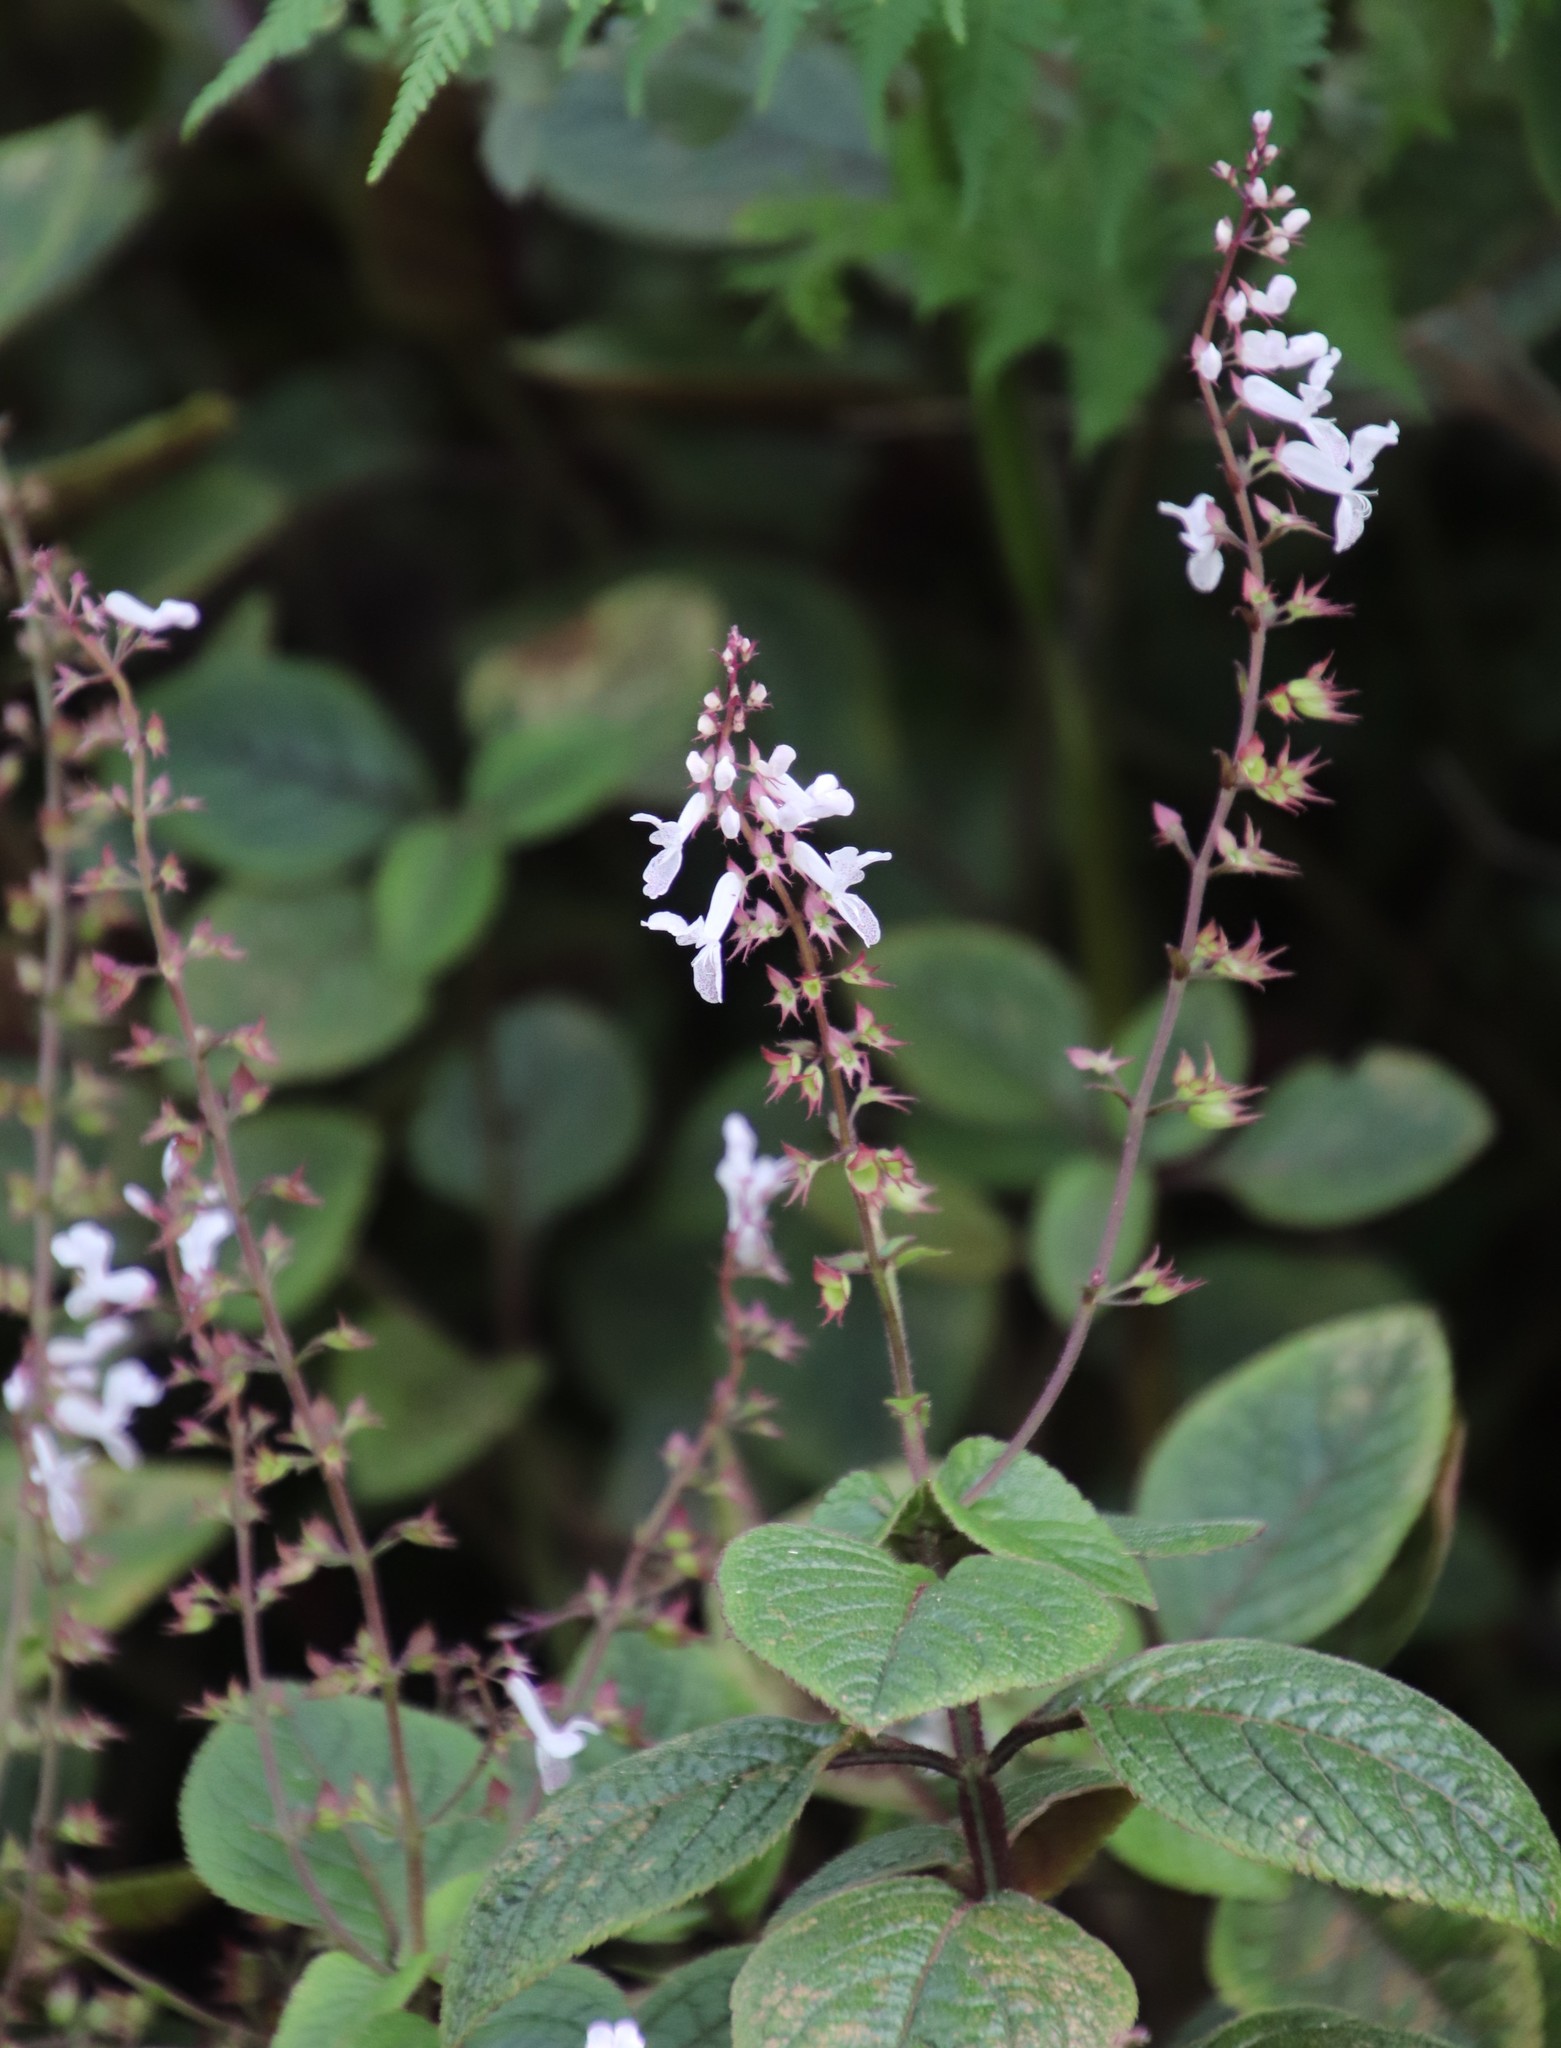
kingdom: Plantae
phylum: Tracheophyta
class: Magnoliopsida
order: Lamiales
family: Lamiaceae
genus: Plectranthus
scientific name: Plectranthus ciliatus
